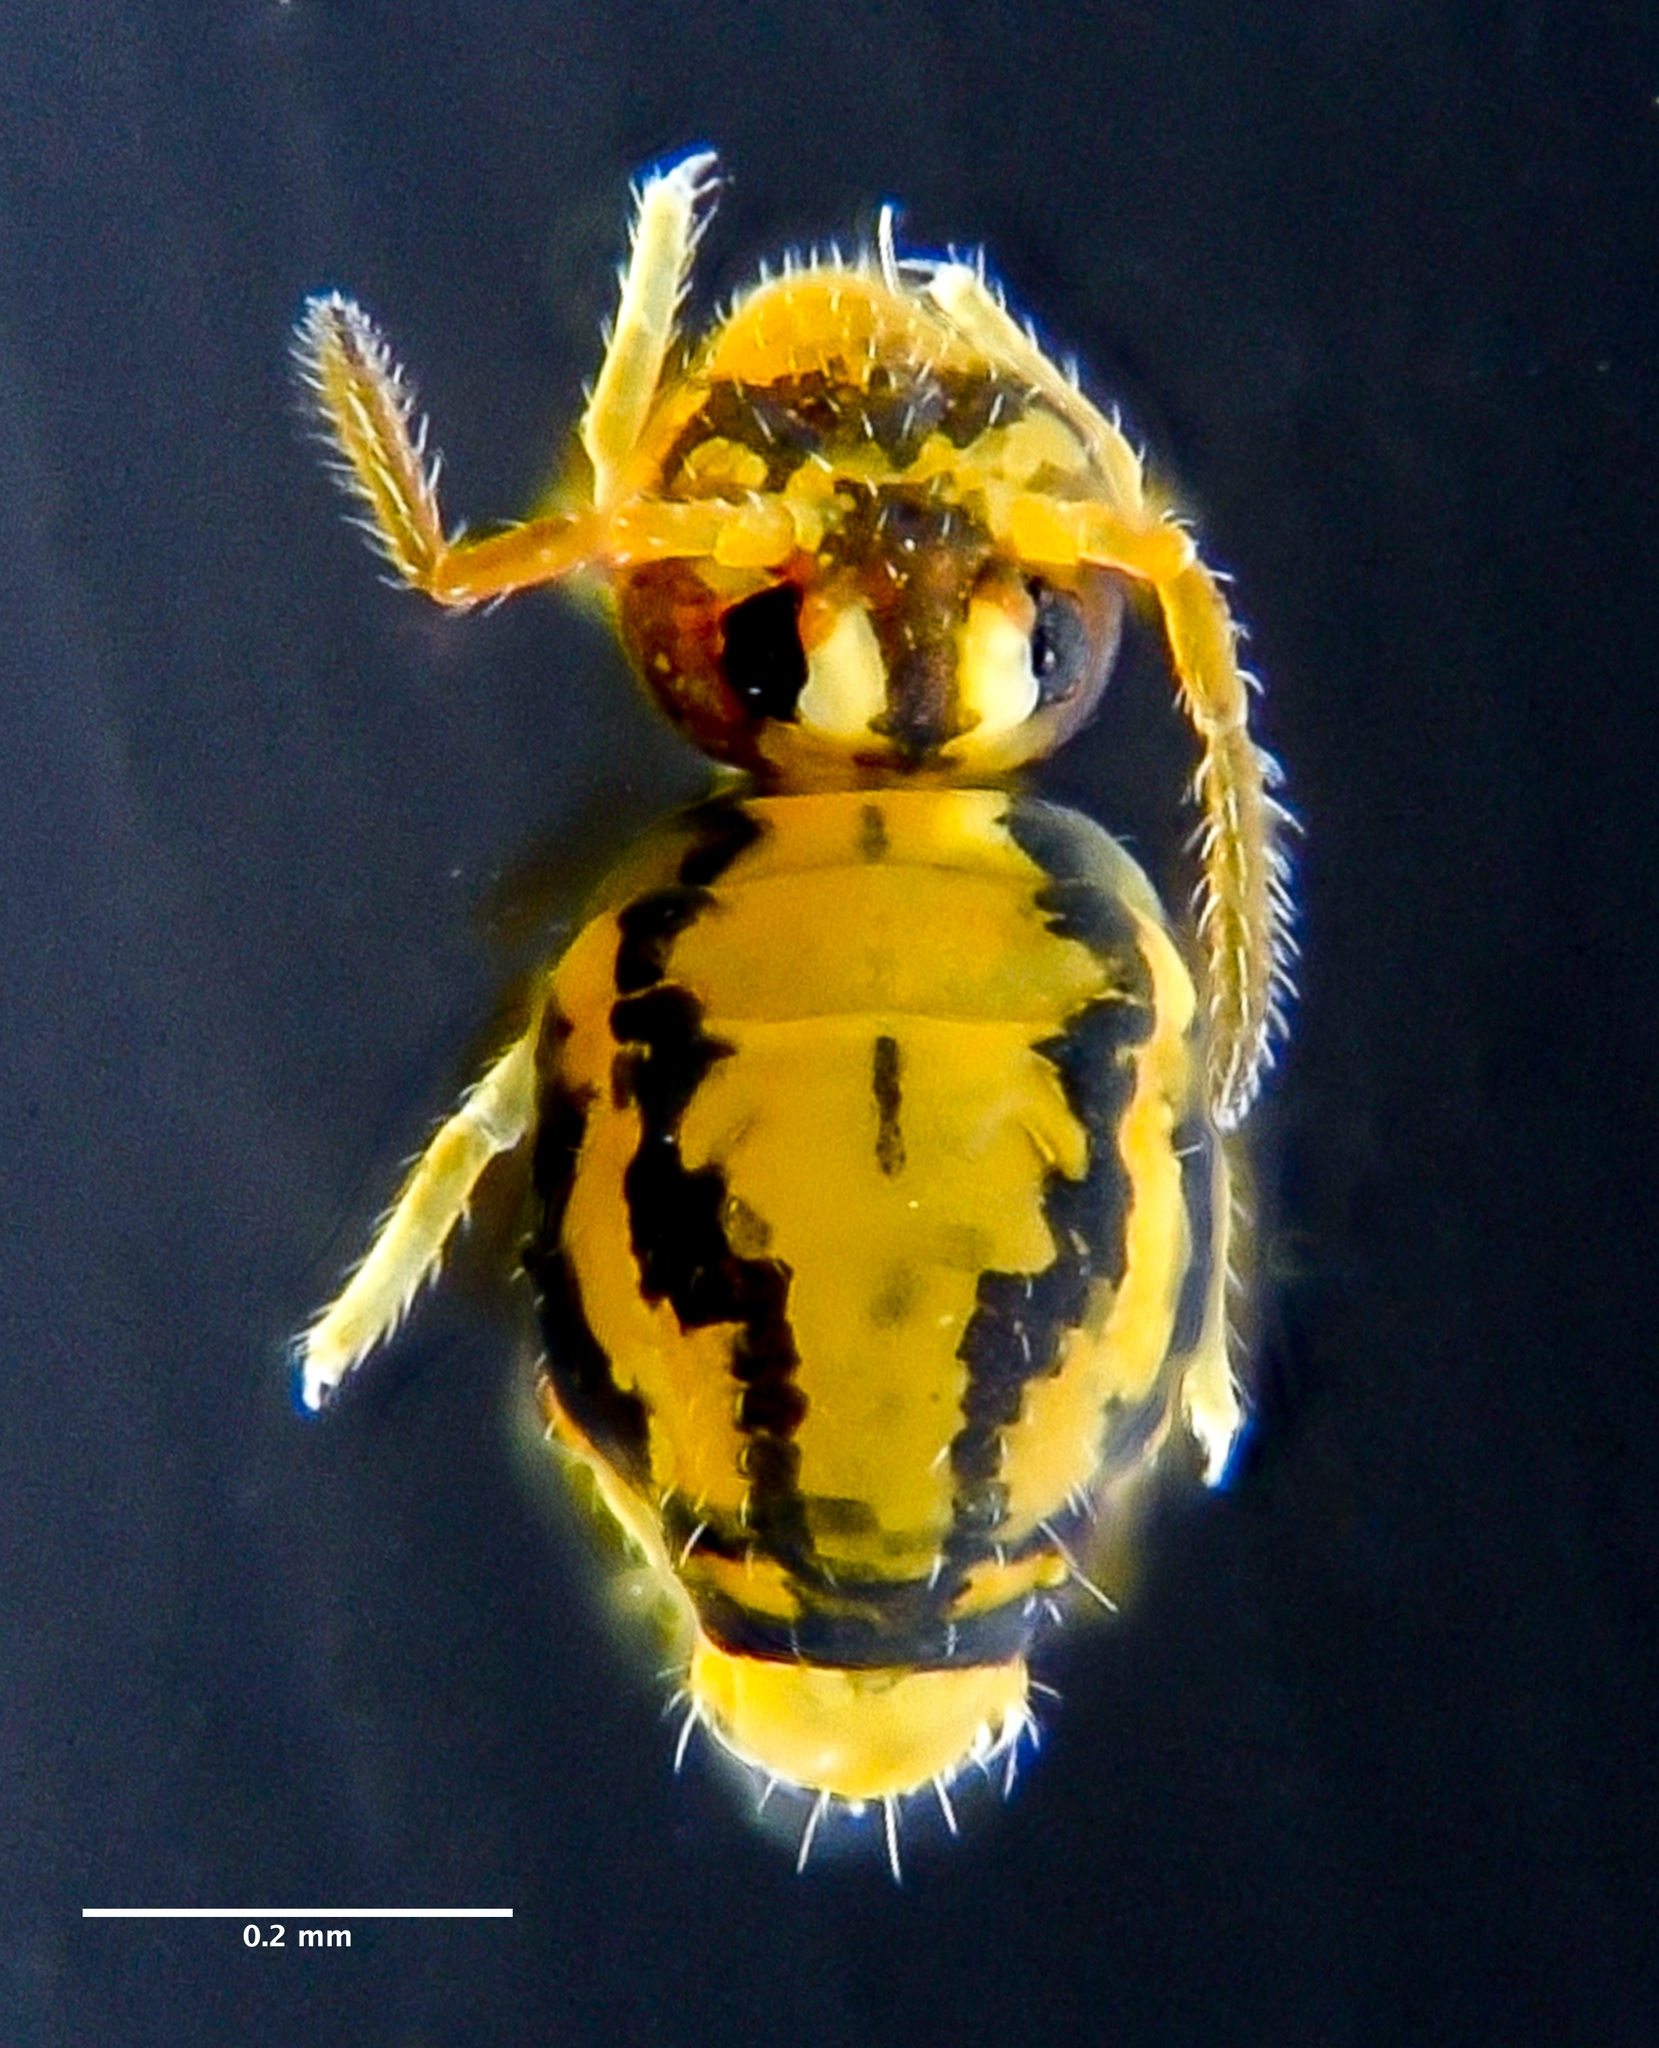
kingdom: Animalia
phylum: Arthropoda
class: Collembola
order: Symphypleona
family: Katiannidae
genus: Sminthurinus
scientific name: Sminthurinus elegans
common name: Globular springtail
